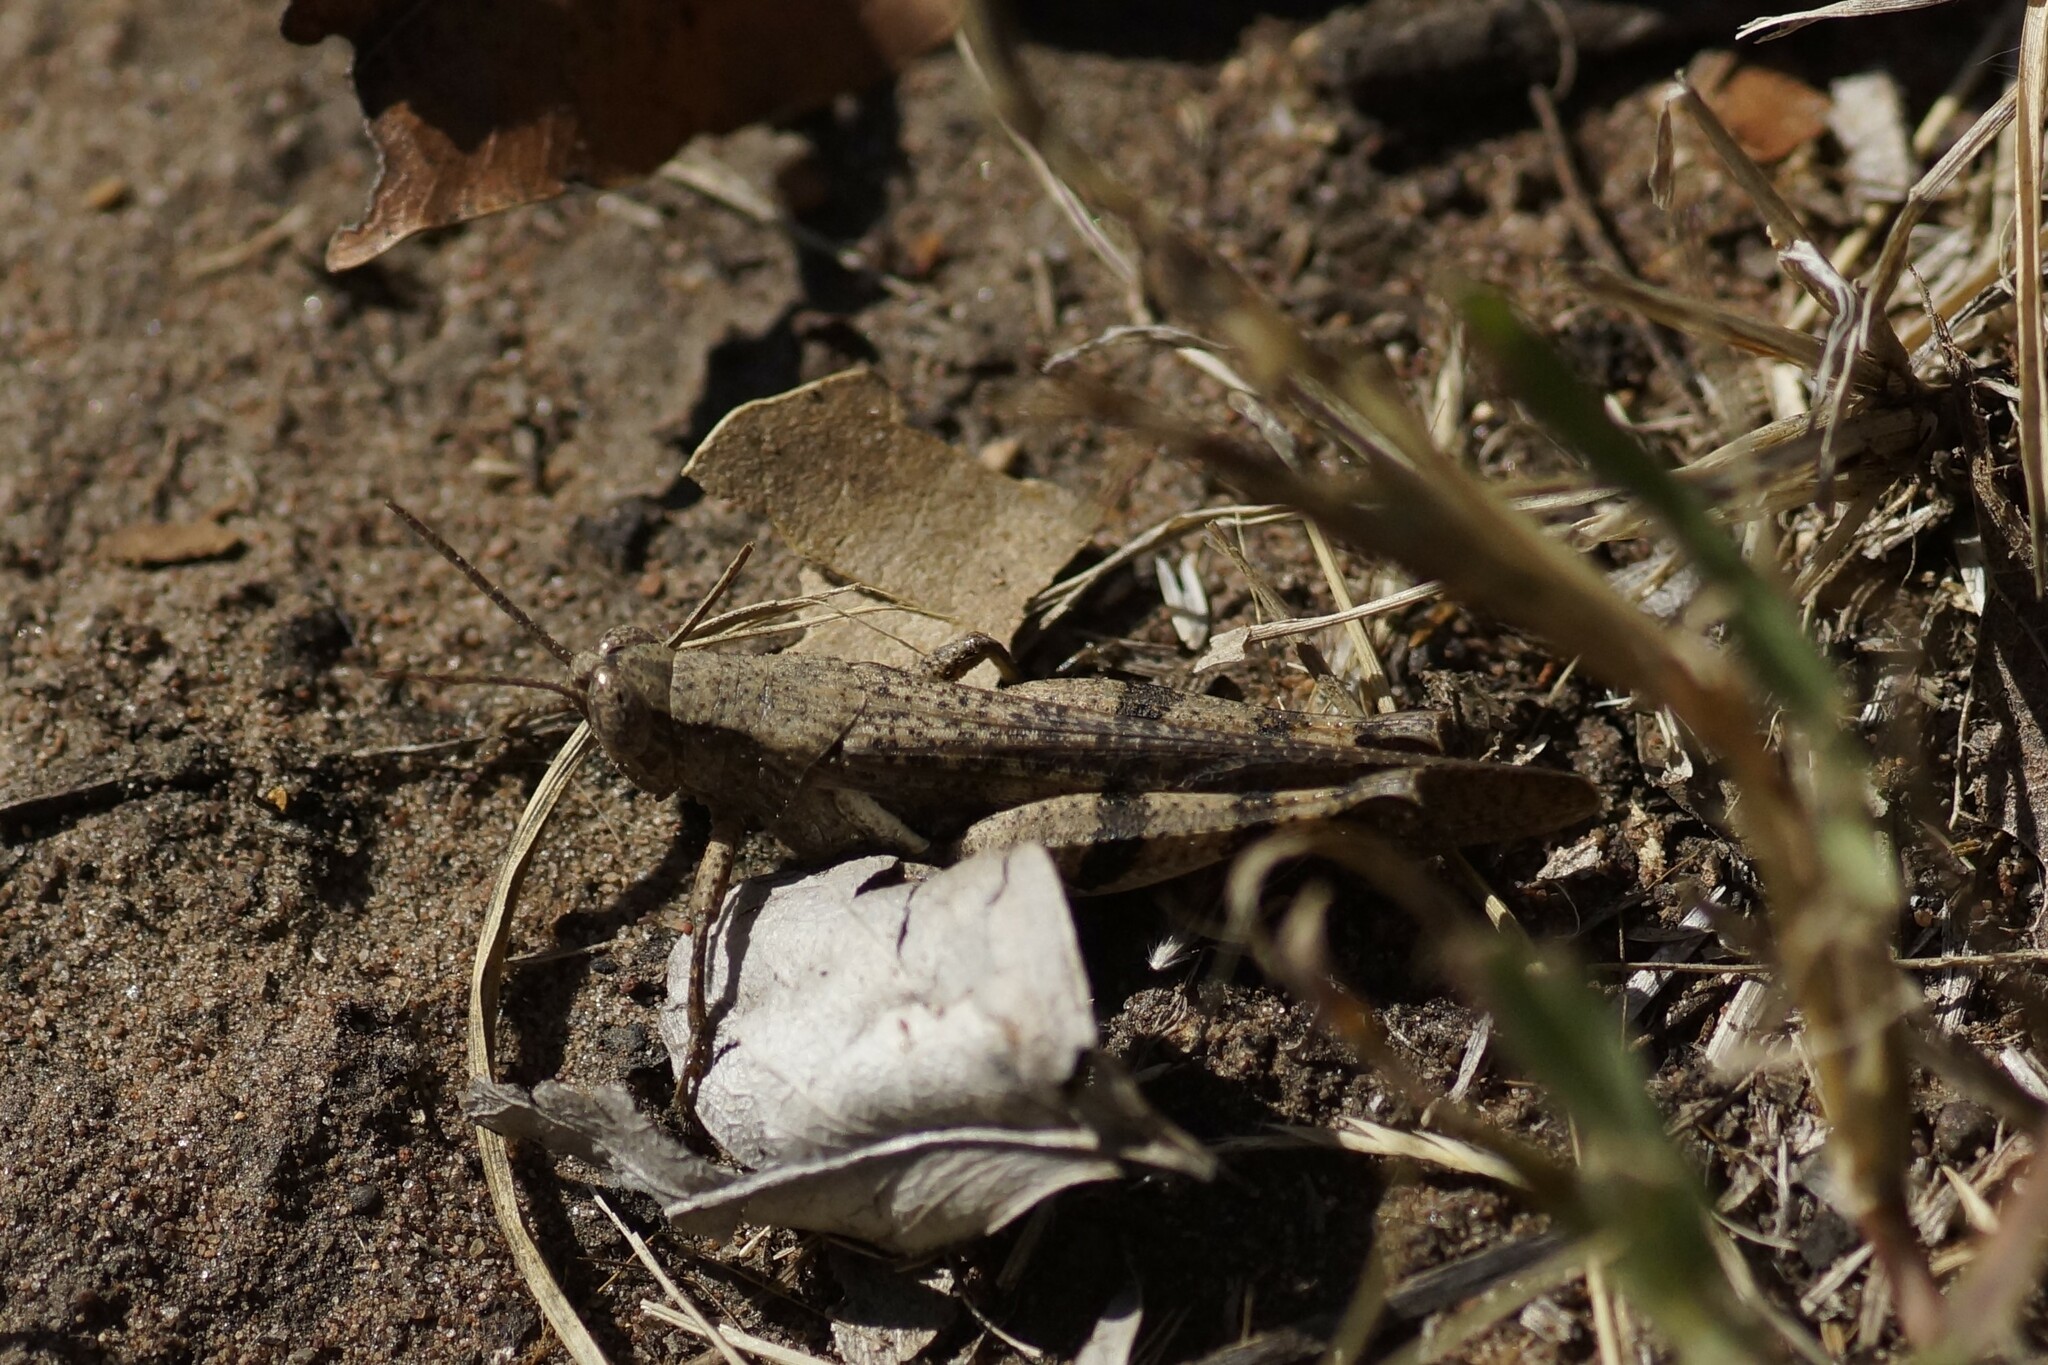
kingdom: Animalia
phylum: Arthropoda
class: Insecta
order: Orthoptera
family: Acrididae
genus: Stenocatantops
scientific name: Stenocatantops angustifrons
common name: Common tropical sharptail
